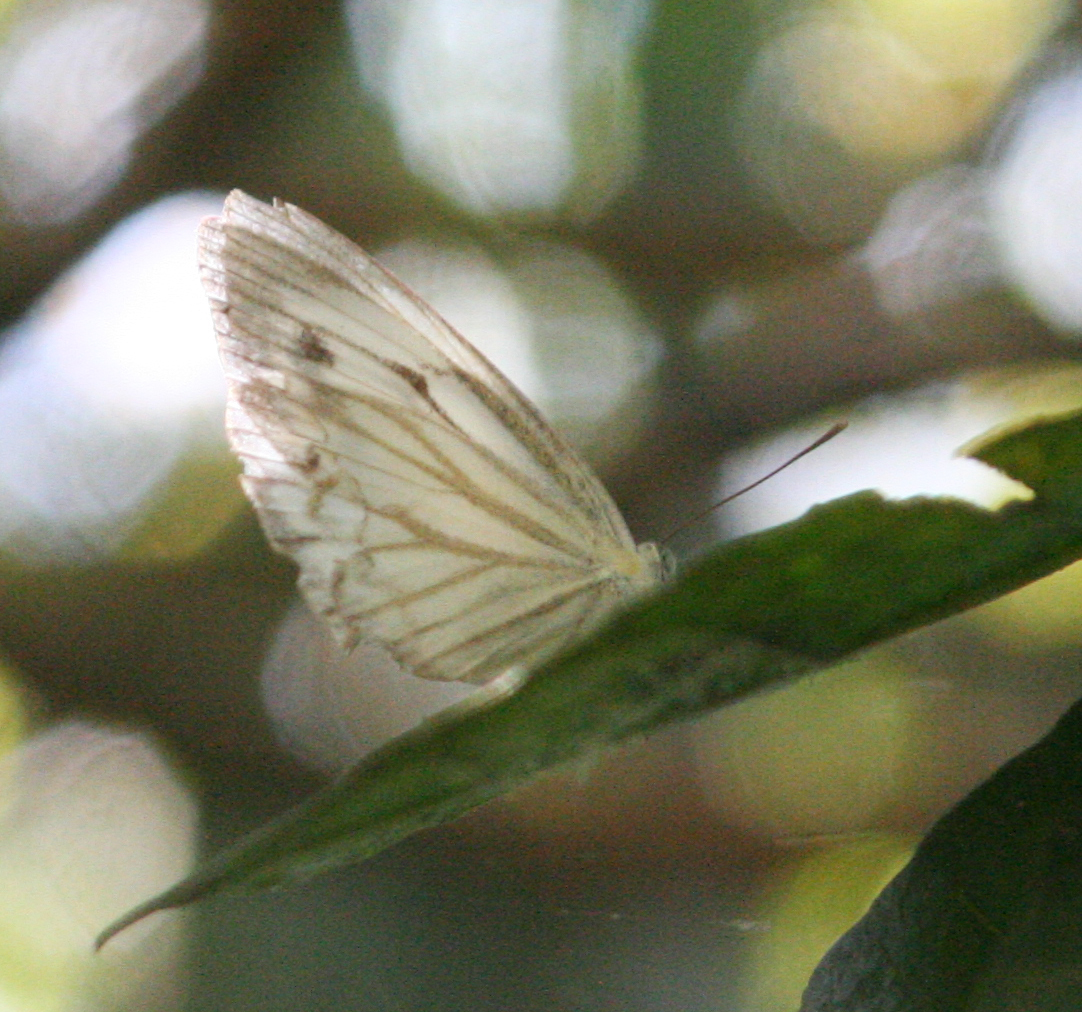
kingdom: Animalia
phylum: Arthropoda
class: Insecta
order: Lepidoptera
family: Pieridae
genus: Cepora
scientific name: Cepora nerissa
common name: Common gull
